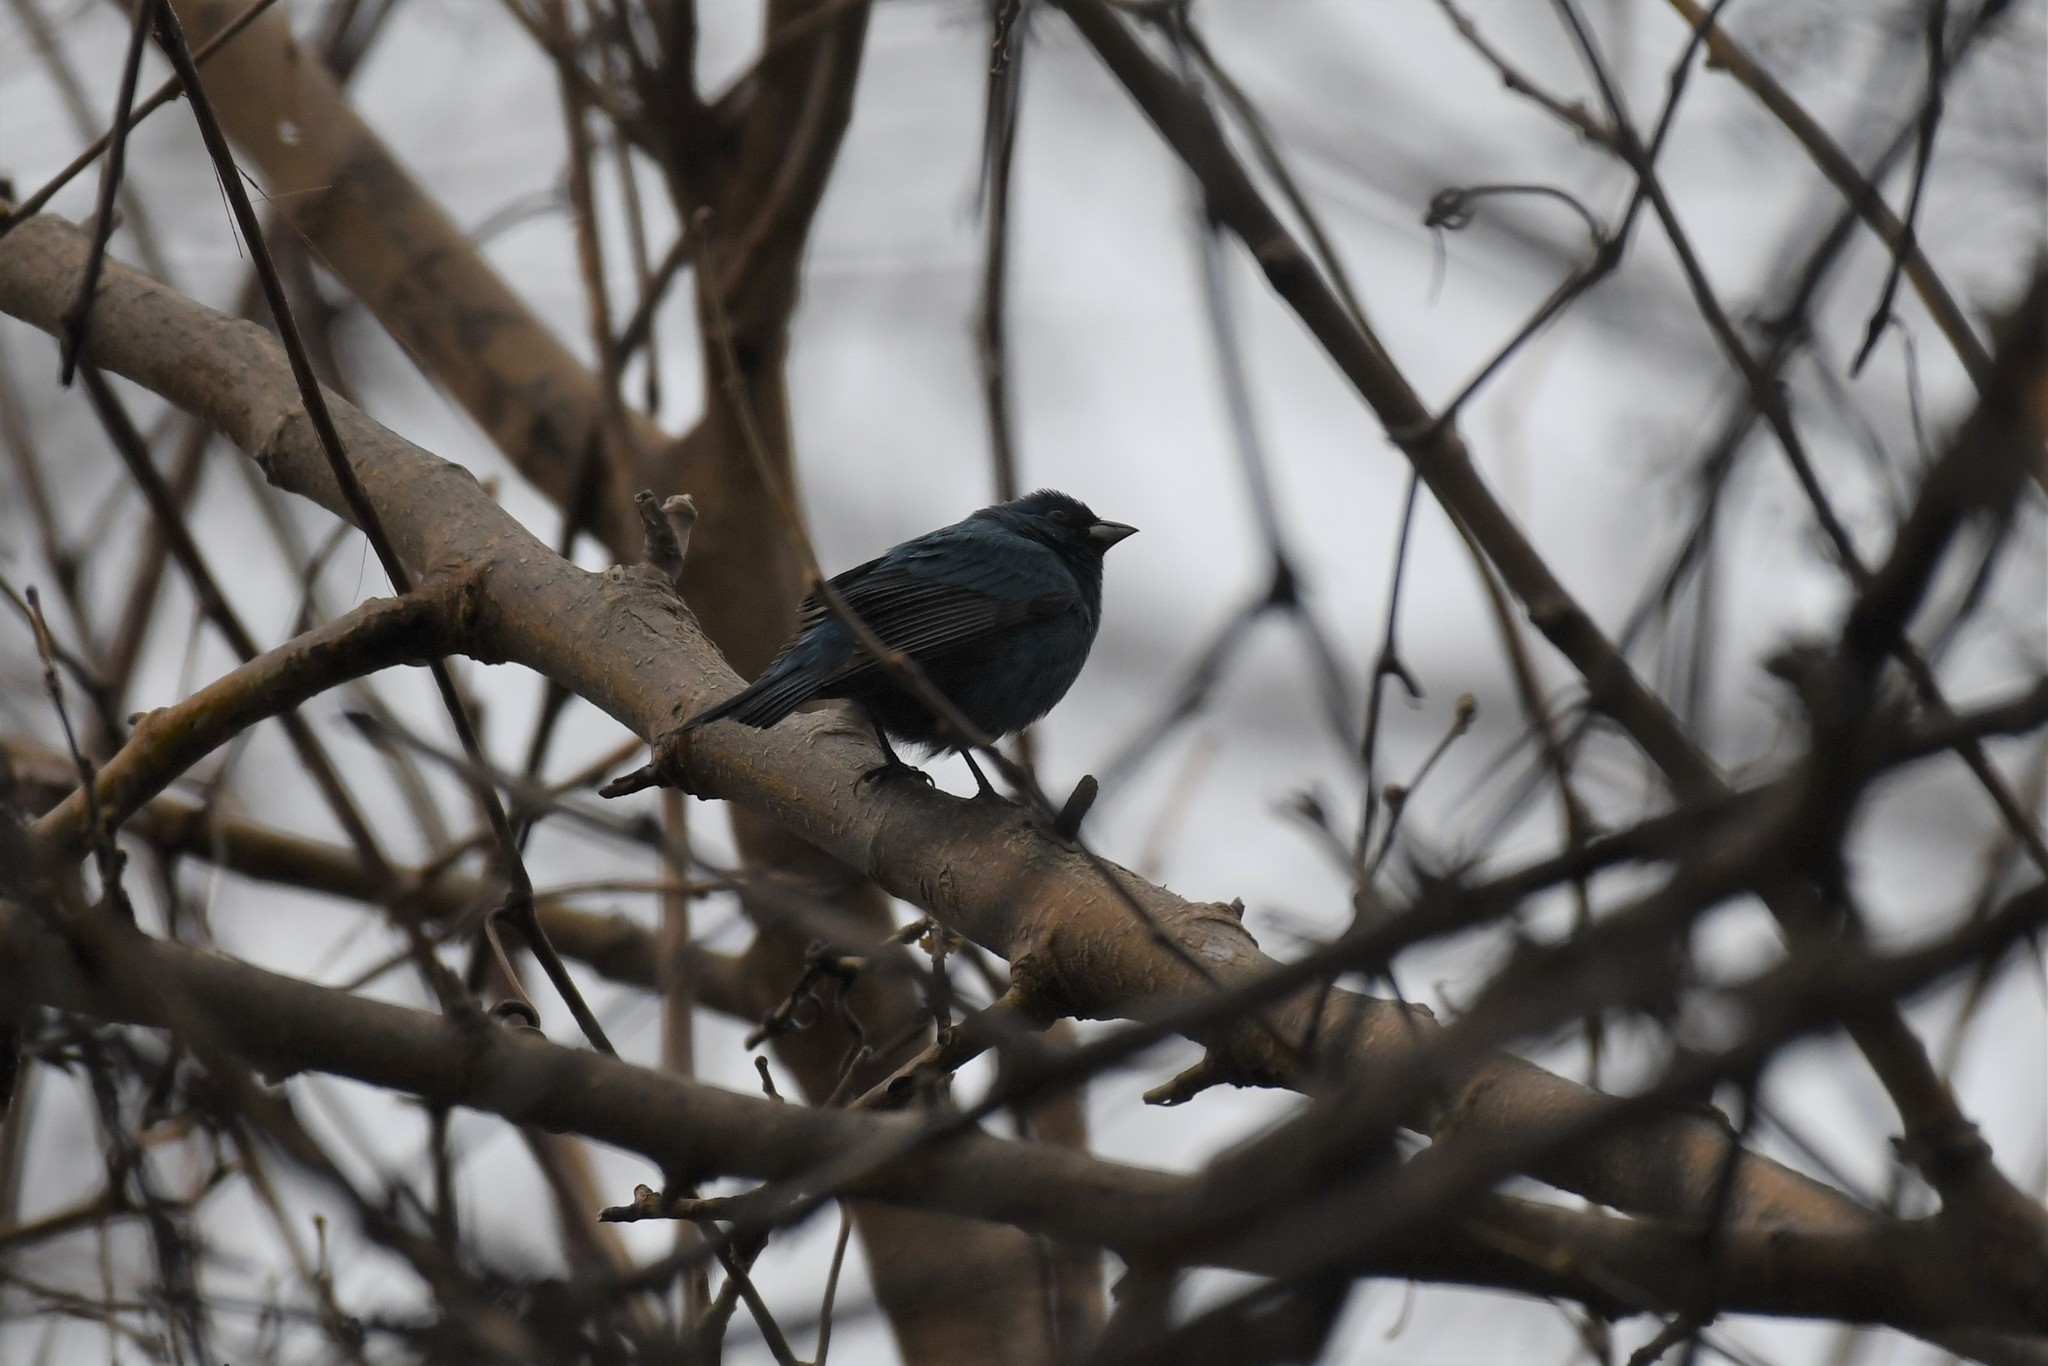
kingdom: Animalia
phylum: Chordata
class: Aves
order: Passeriformes
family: Cardinalidae
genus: Passerina
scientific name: Passerina cyanea
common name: Indigo bunting
